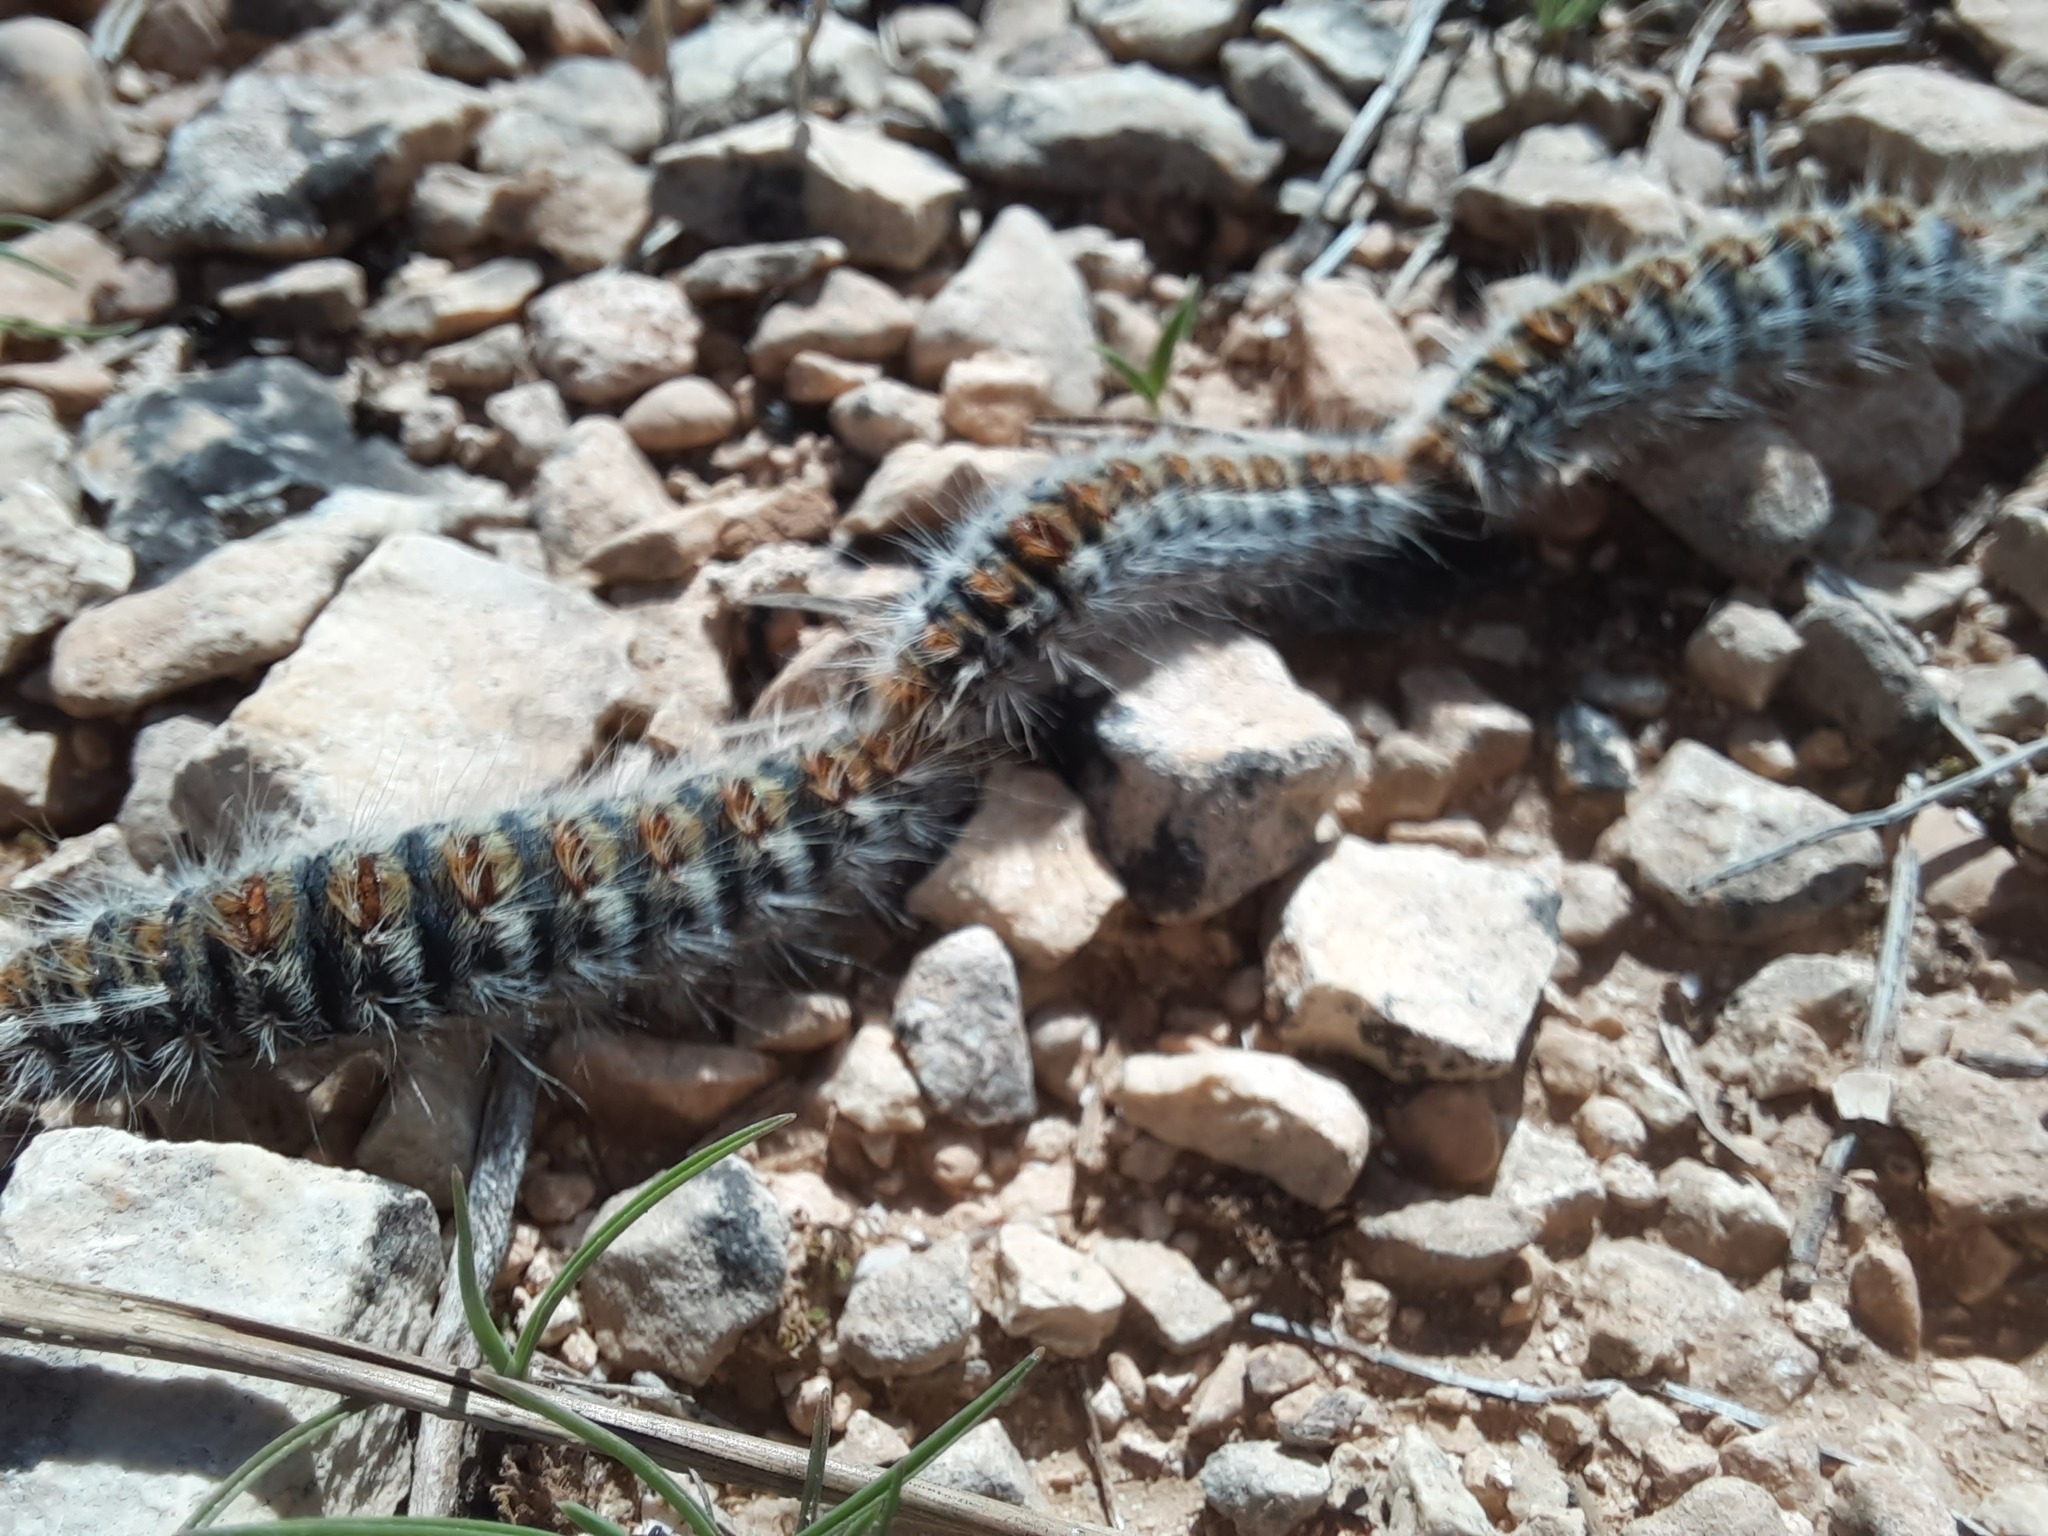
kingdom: Animalia
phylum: Arthropoda
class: Insecta
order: Lepidoptera
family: Notodontidae
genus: Thaumetopoea
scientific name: Thaumetopoea pityocampa
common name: Pine processionary
